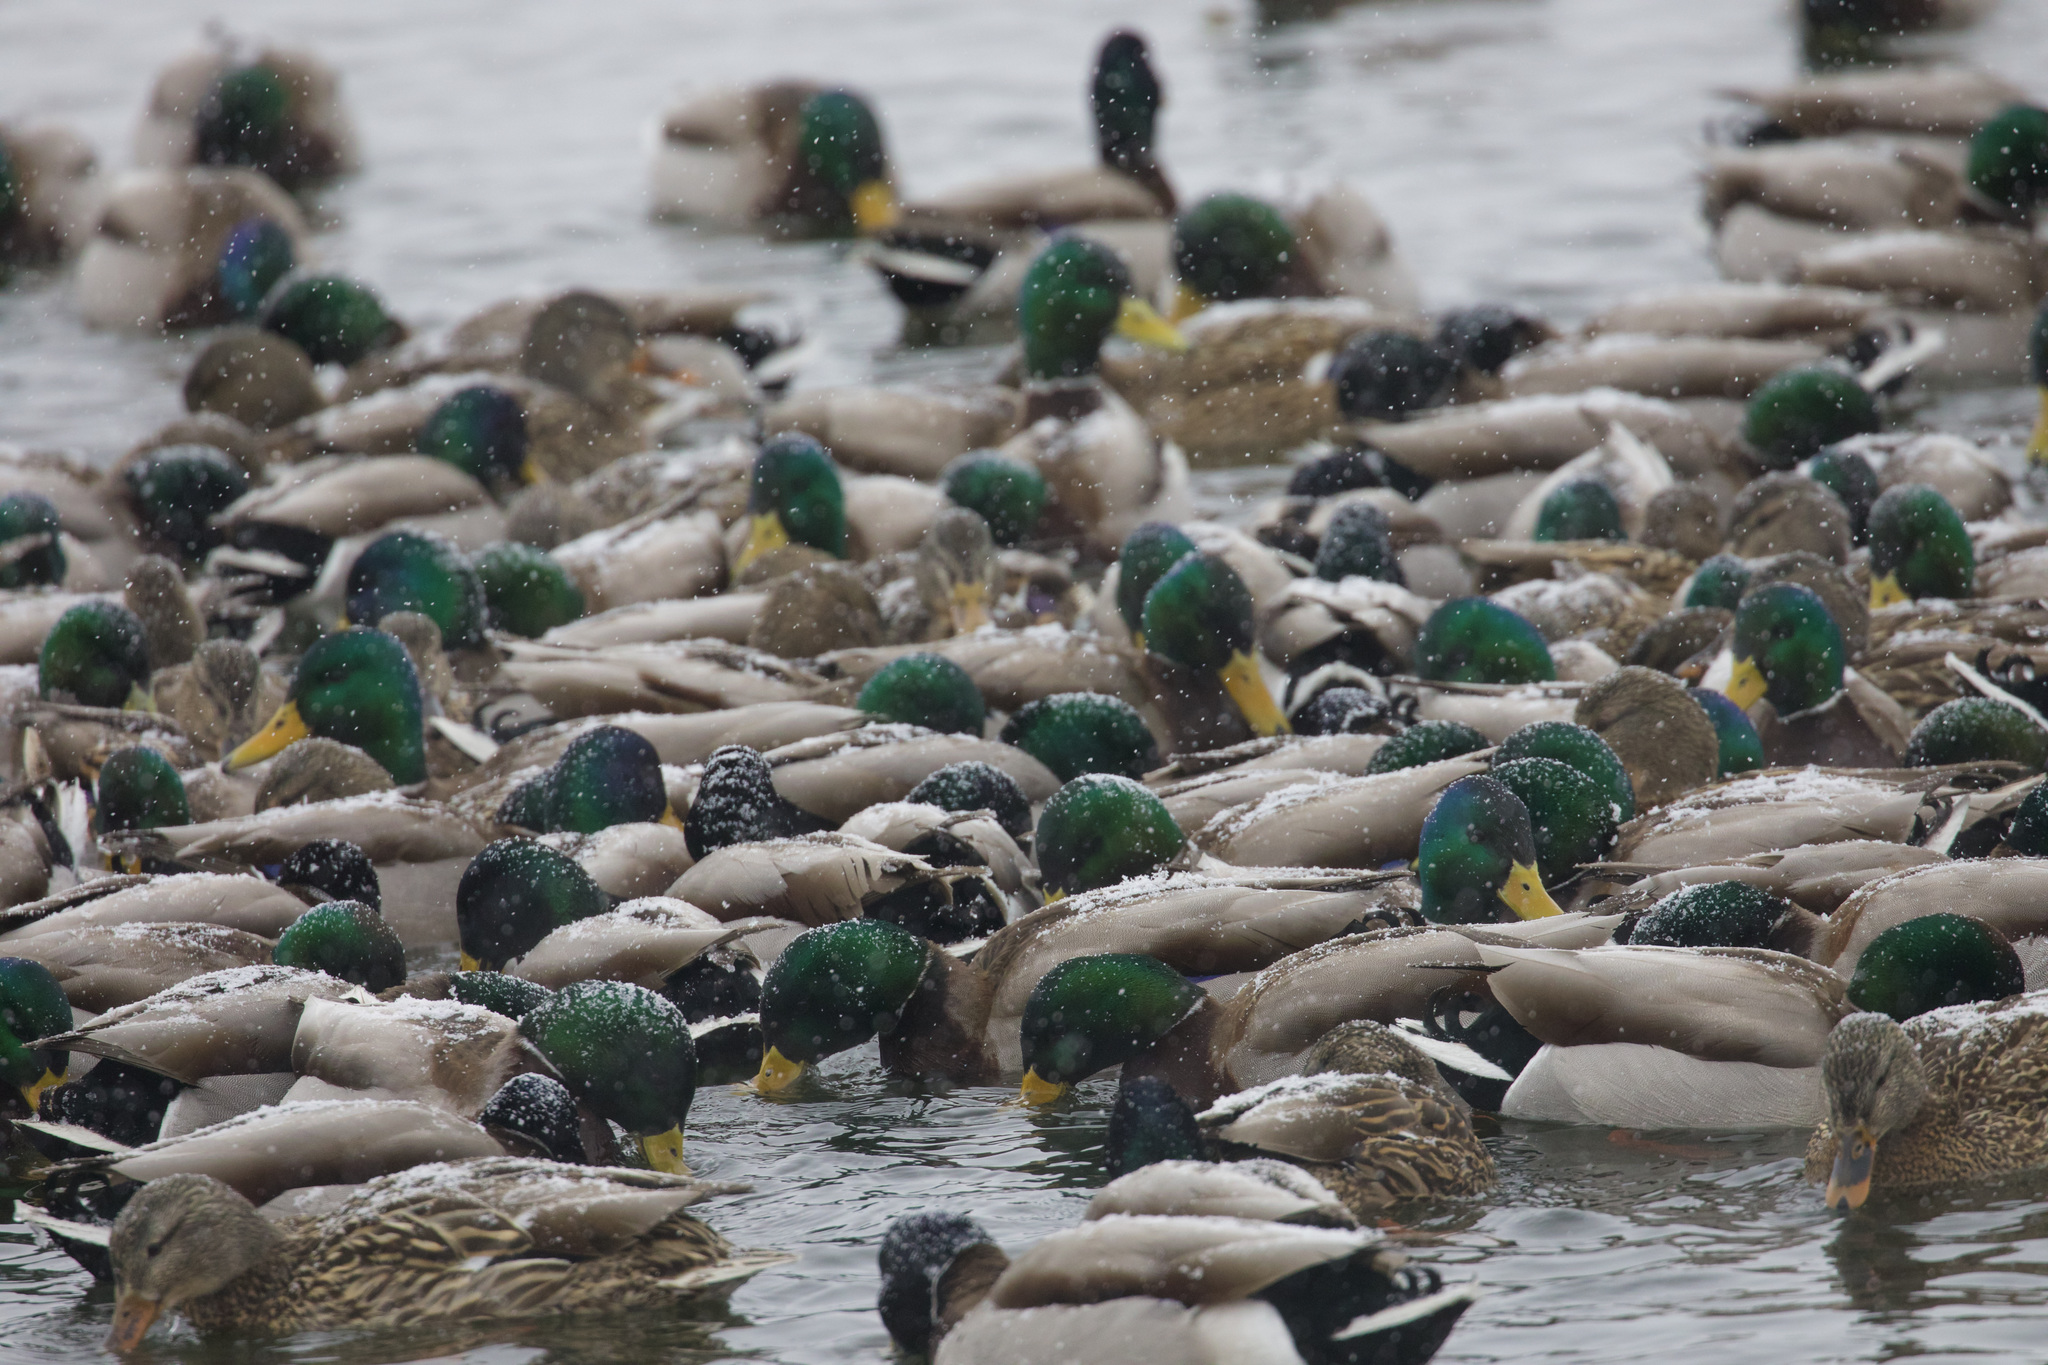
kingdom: Animalia
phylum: Chordata
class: Aves
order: Anseriformes
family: Anatidae
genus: Anas
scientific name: Anas platyrhynchos
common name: Mallard
